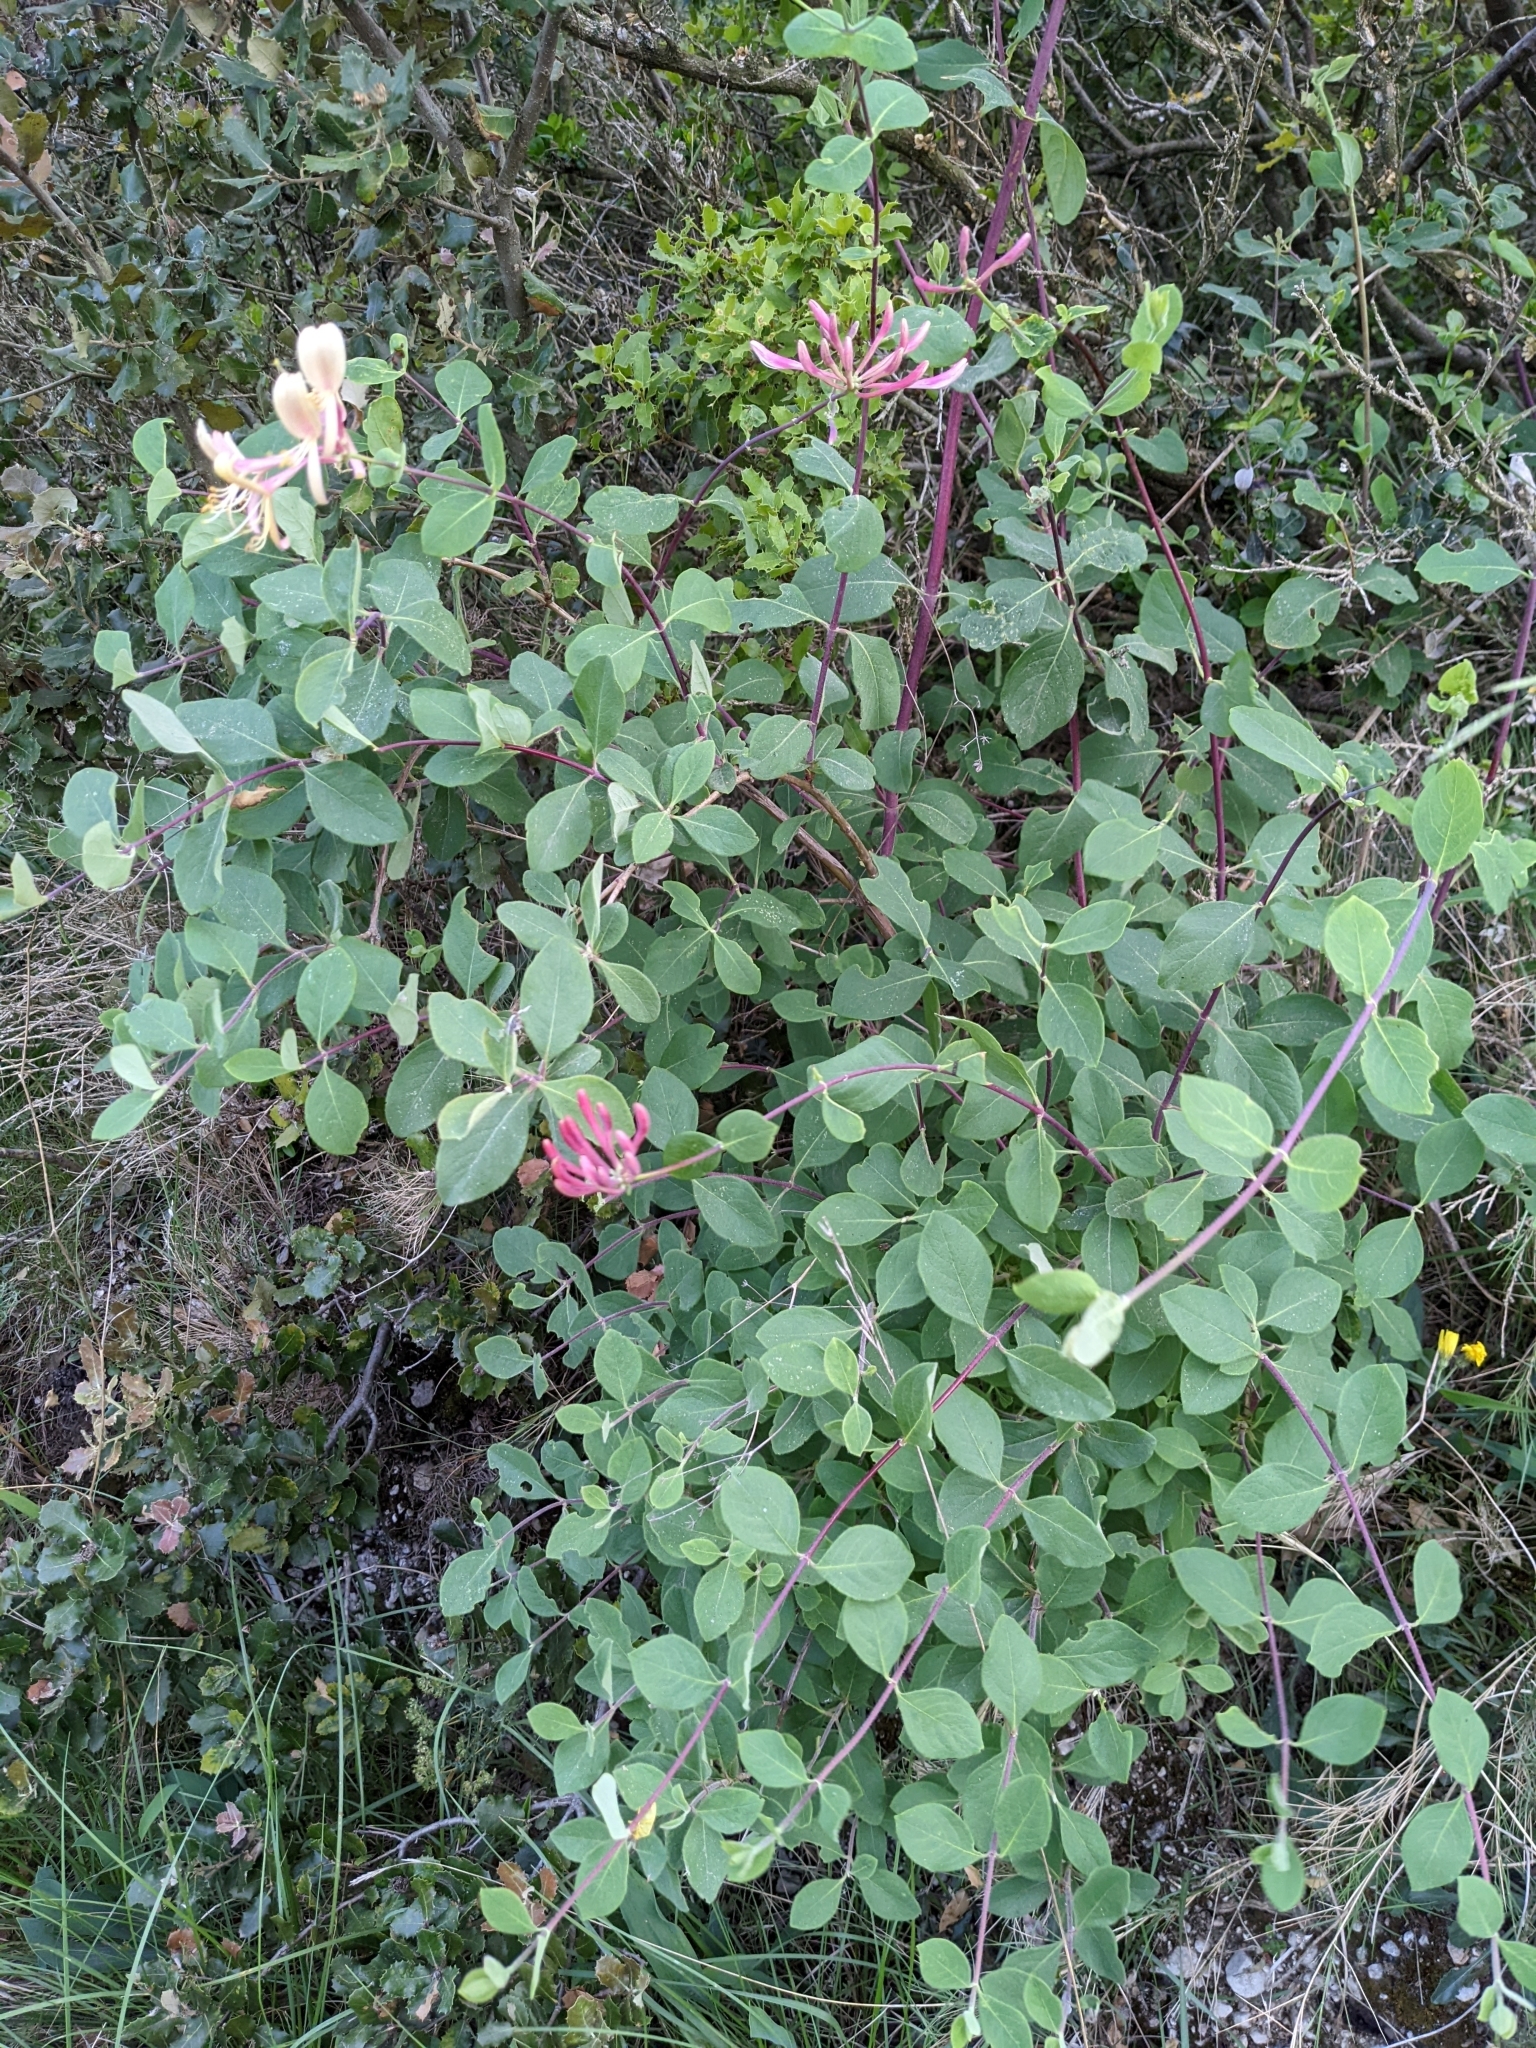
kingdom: Plantae
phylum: Tracheophyta
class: Magnoliopsida
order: Dipsacales
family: Caprifoliaceae
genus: Lonicera
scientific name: Lonicera etrusca
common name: Etruscan honeysuckle
